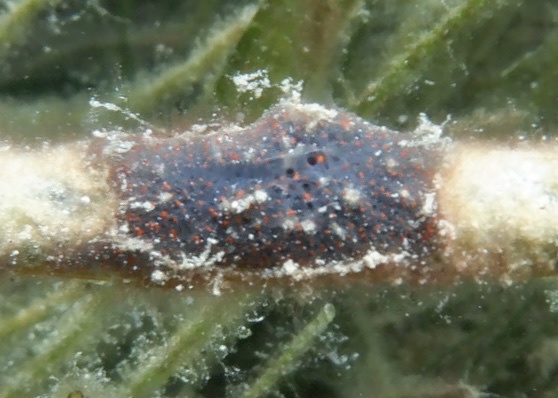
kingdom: Animalia
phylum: Porifera
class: Demospongiae
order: Poecilosclerida
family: Mycalidae
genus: Mycale
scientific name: Mycale microsigmatosa
